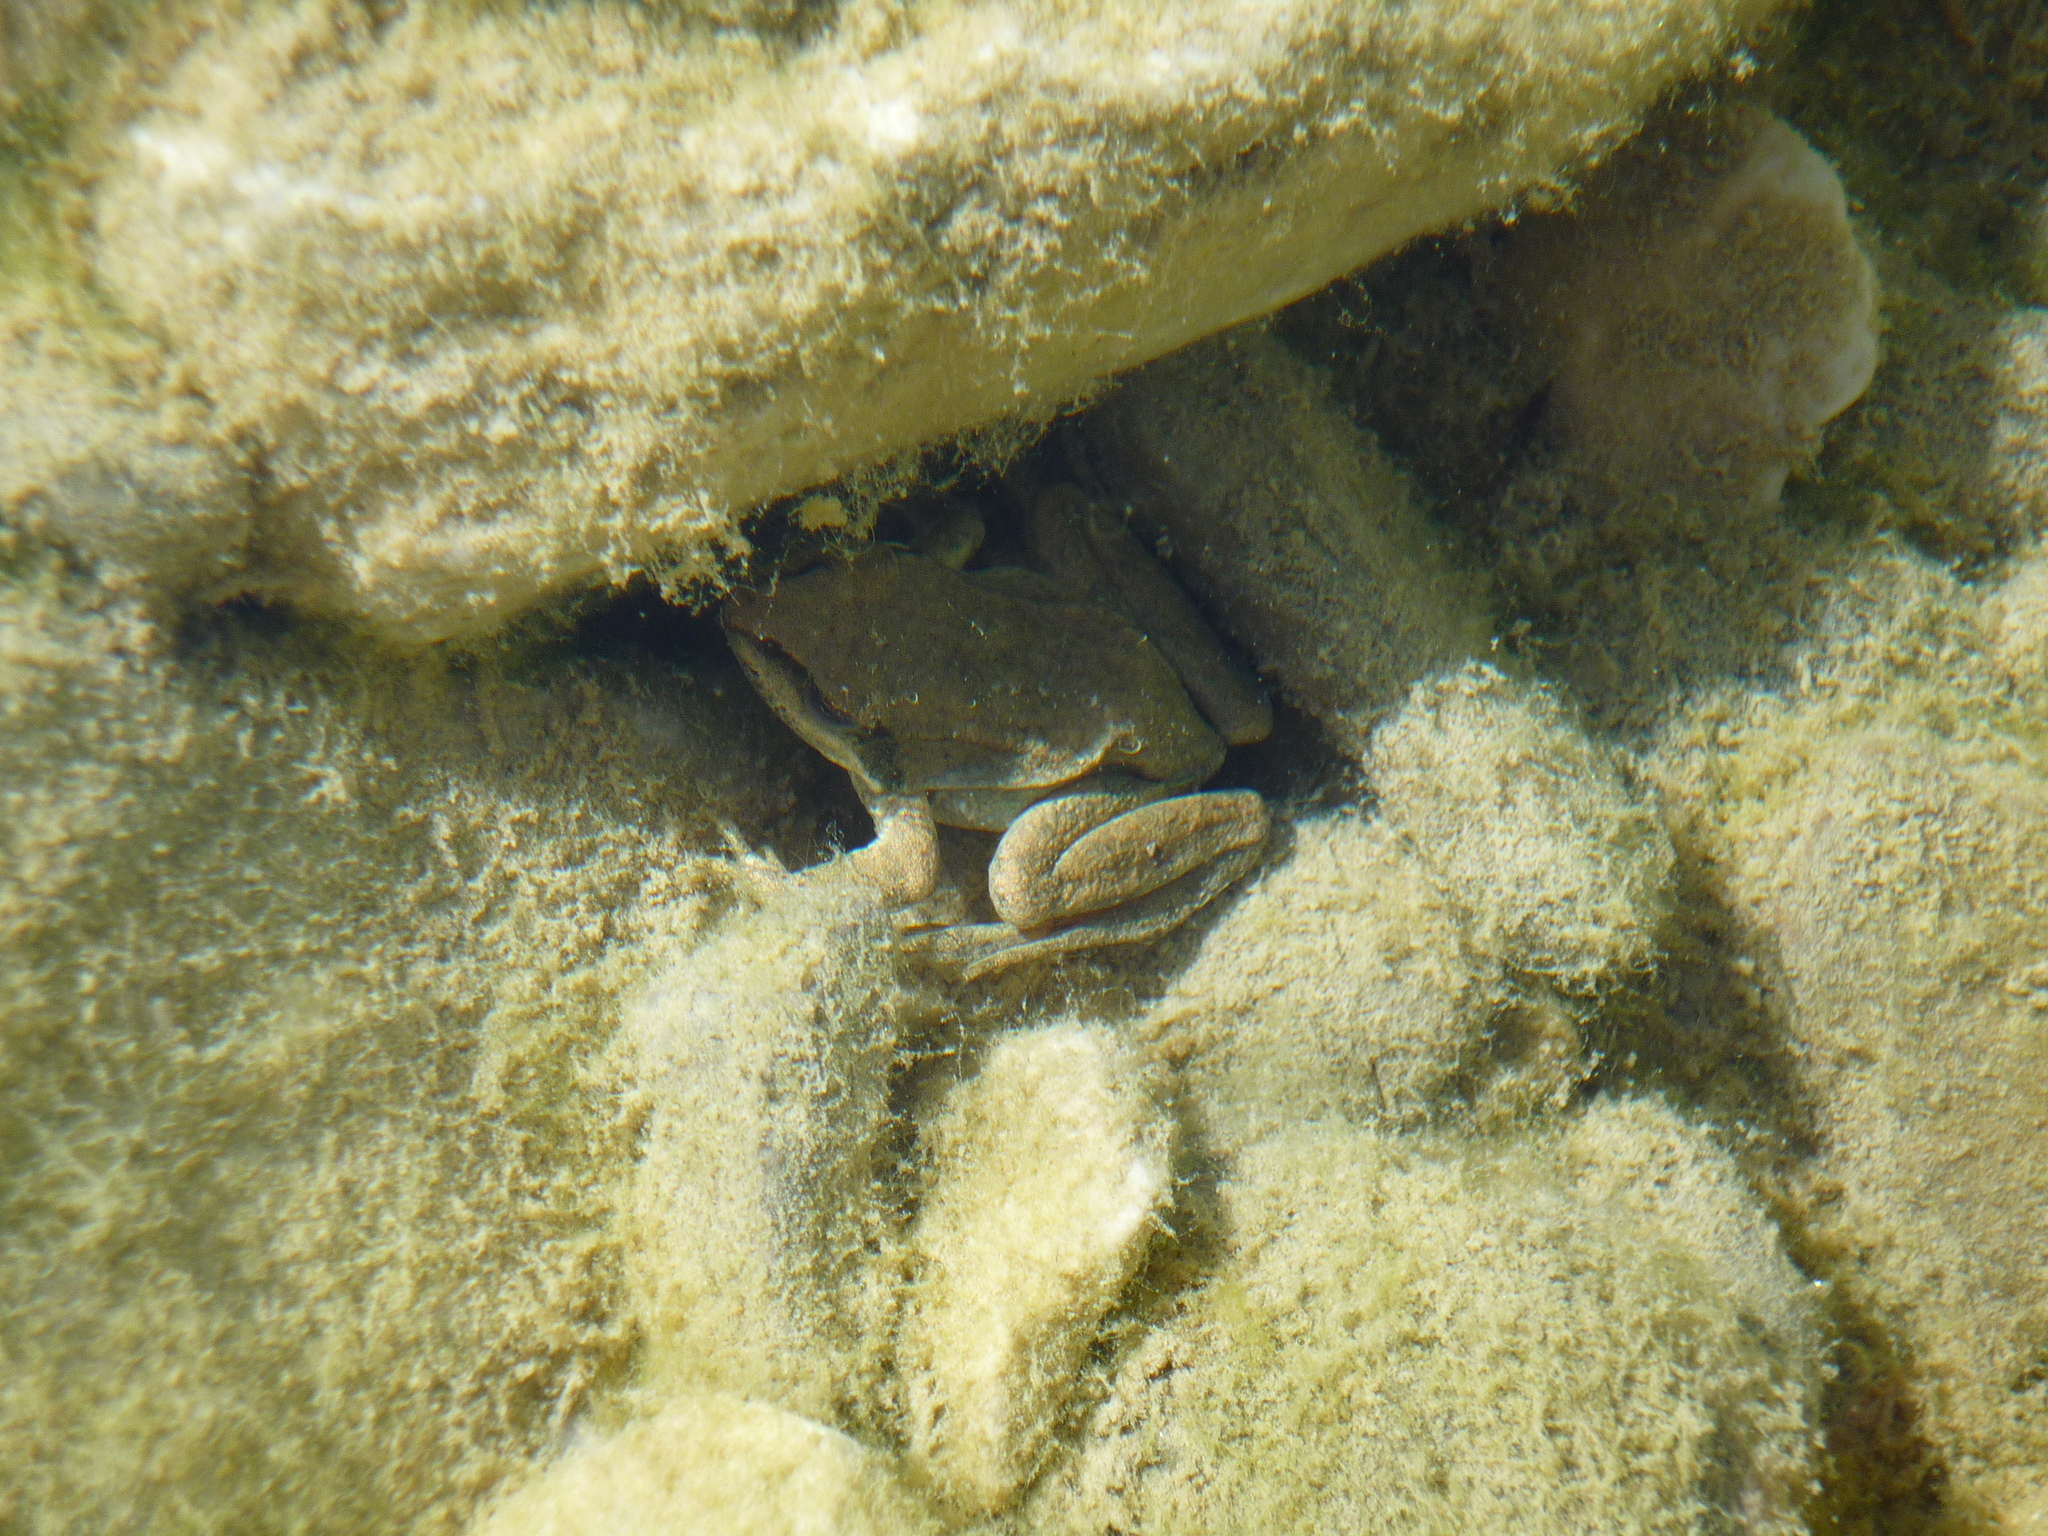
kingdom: Animalia
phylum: Chordata
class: Amphibia
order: Anura
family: Ranidae
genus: Rana
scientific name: Rana pyrenaica
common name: Pyrenean frog
